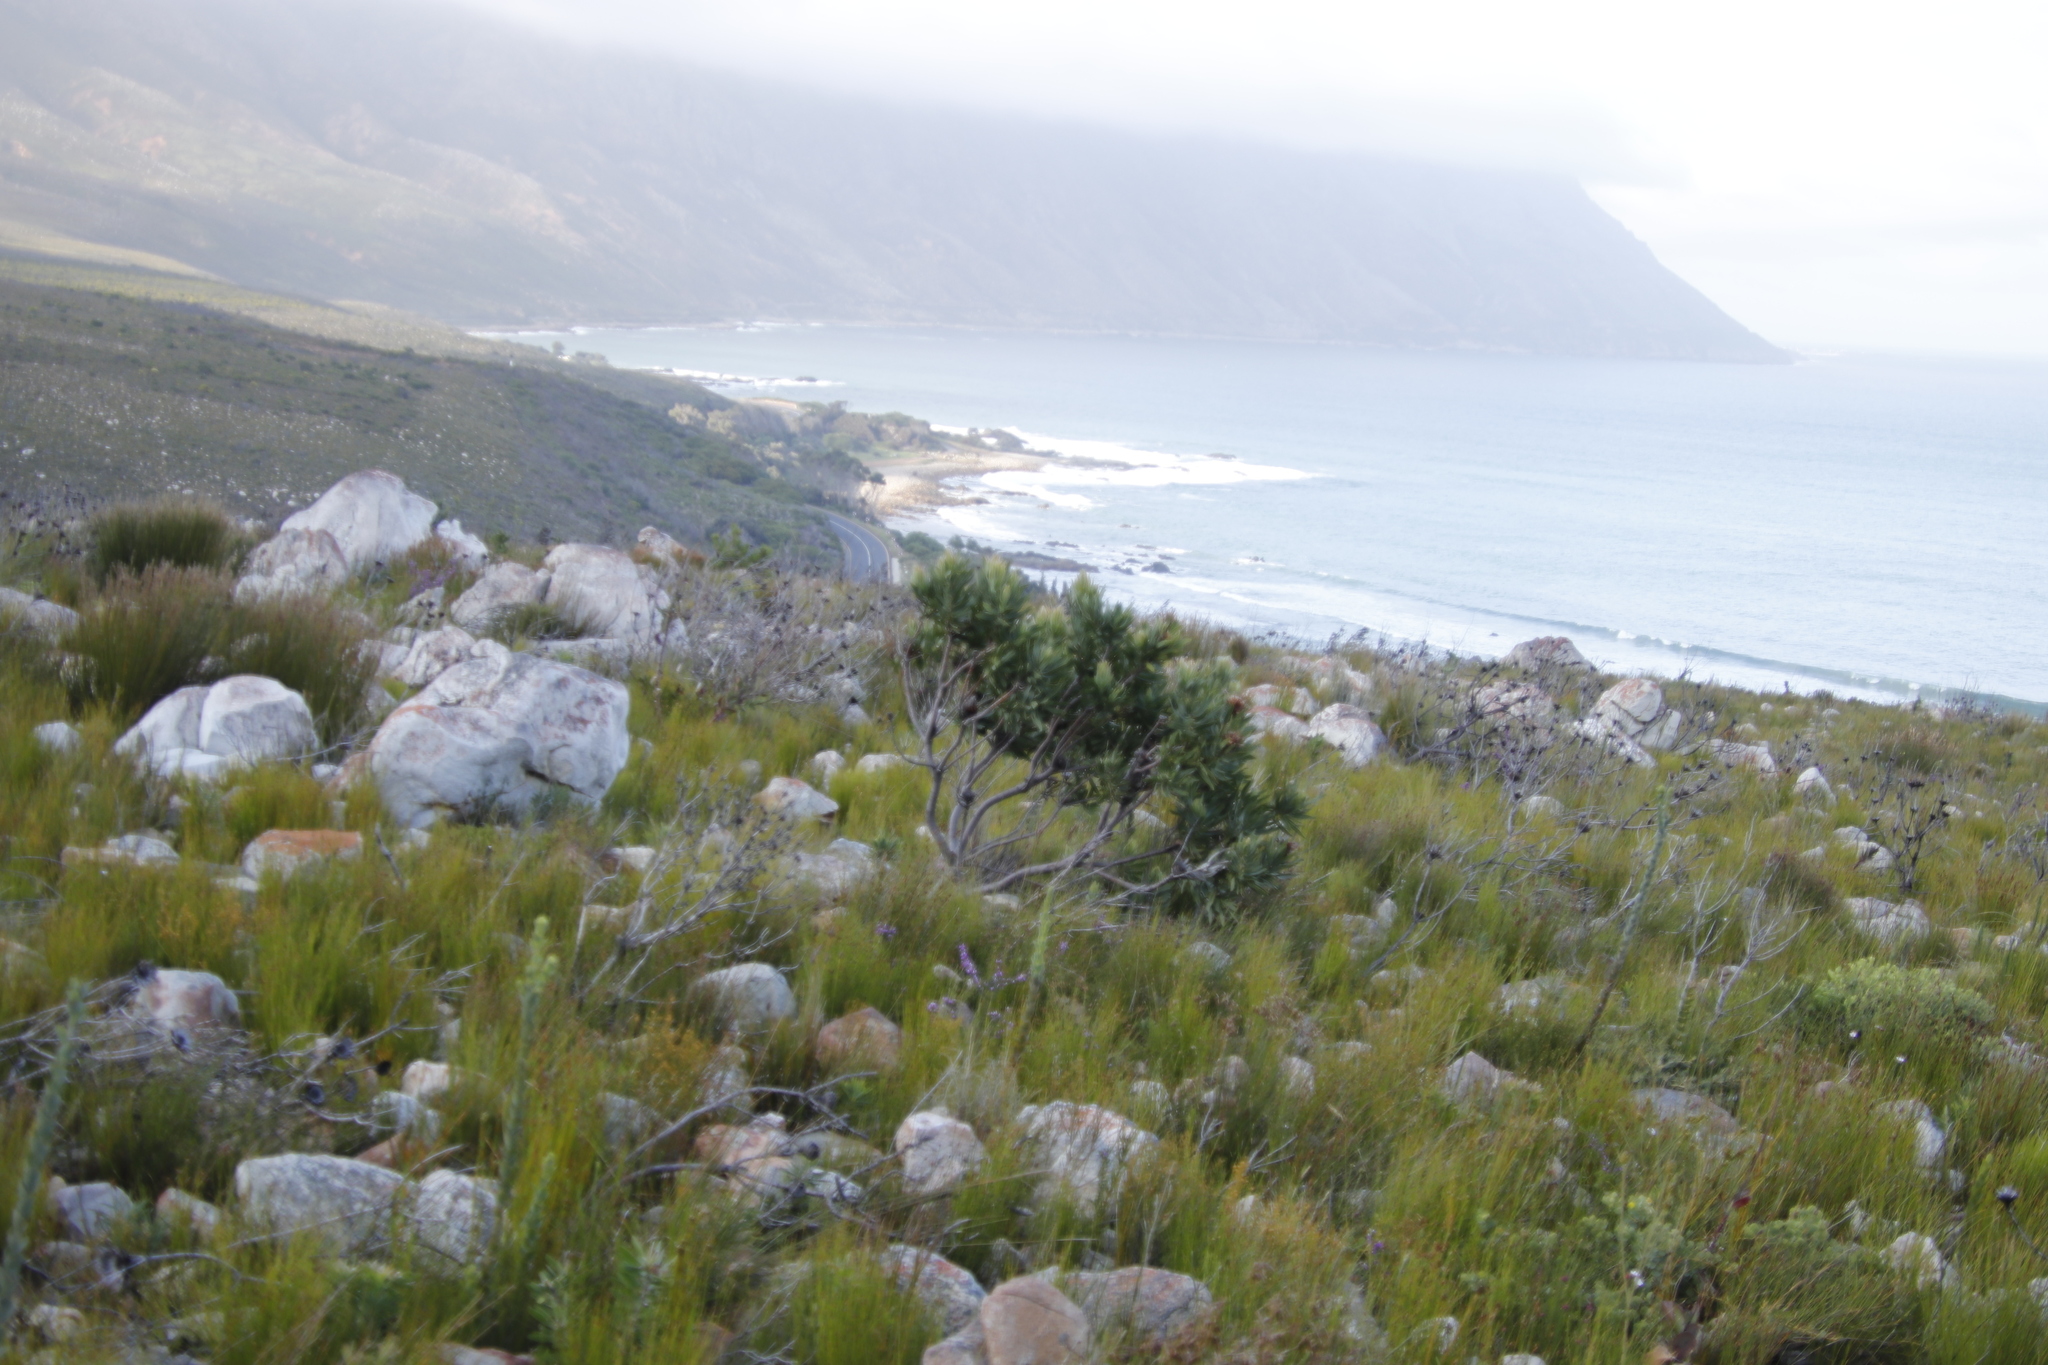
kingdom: Plantae
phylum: Tracheophyta
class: Magnoliopsida
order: Proteales
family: Proteaceae
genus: Protea
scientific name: Protea laurifolia
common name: Grey-leaf sugarbsh
